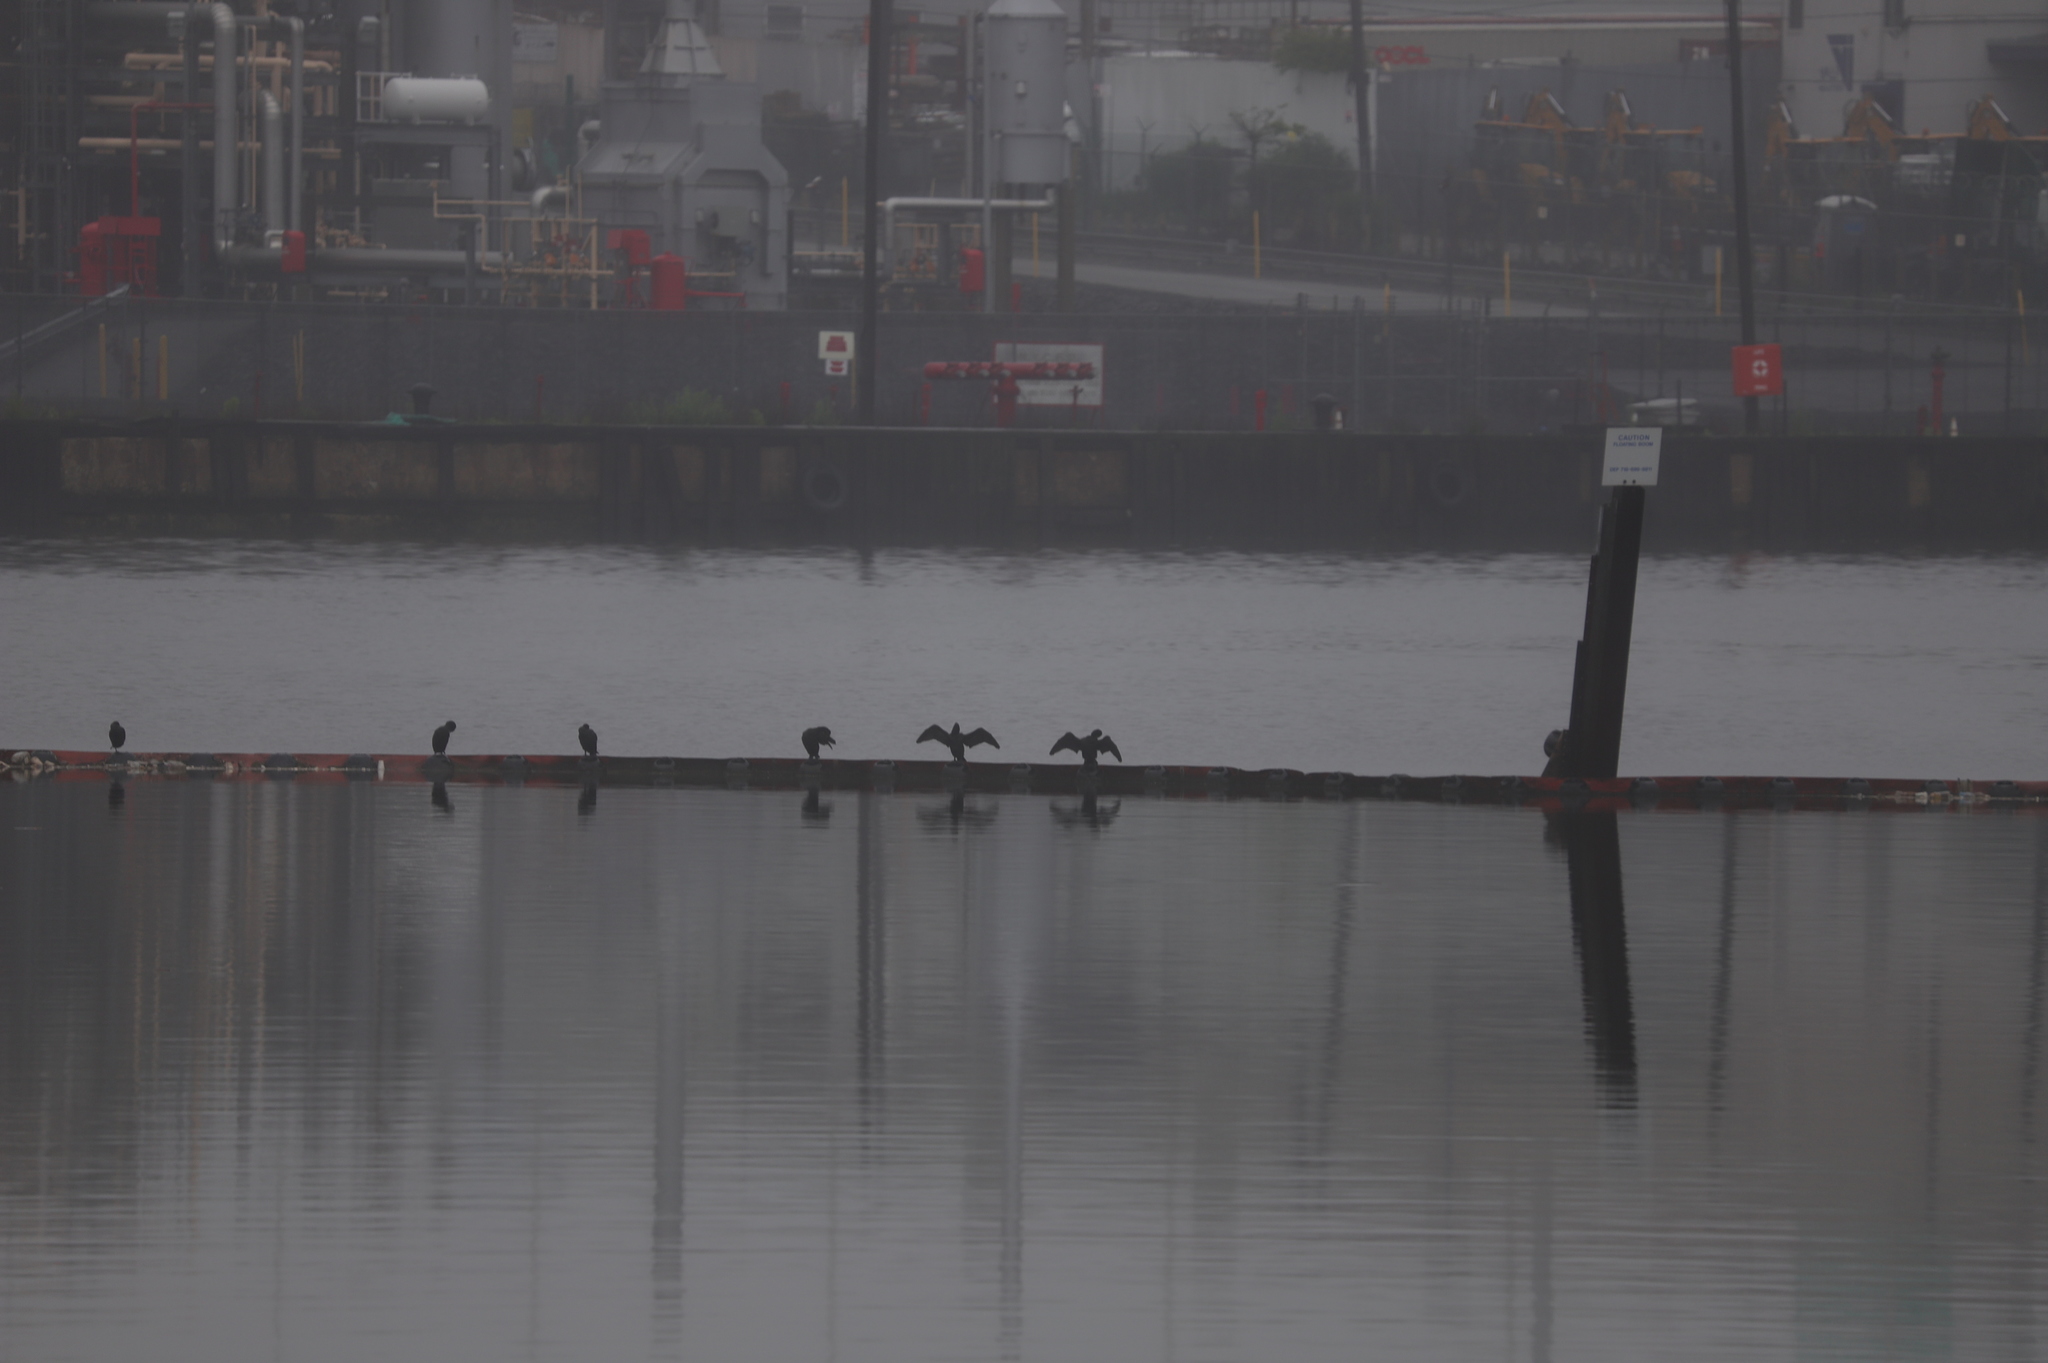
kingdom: Animalia
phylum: Chordata
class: Aves
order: Suliformes
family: Phalacrocoracidae
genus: Phalacrocorax
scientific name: Phalacrocorax auritus
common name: Double-crested cormorant
